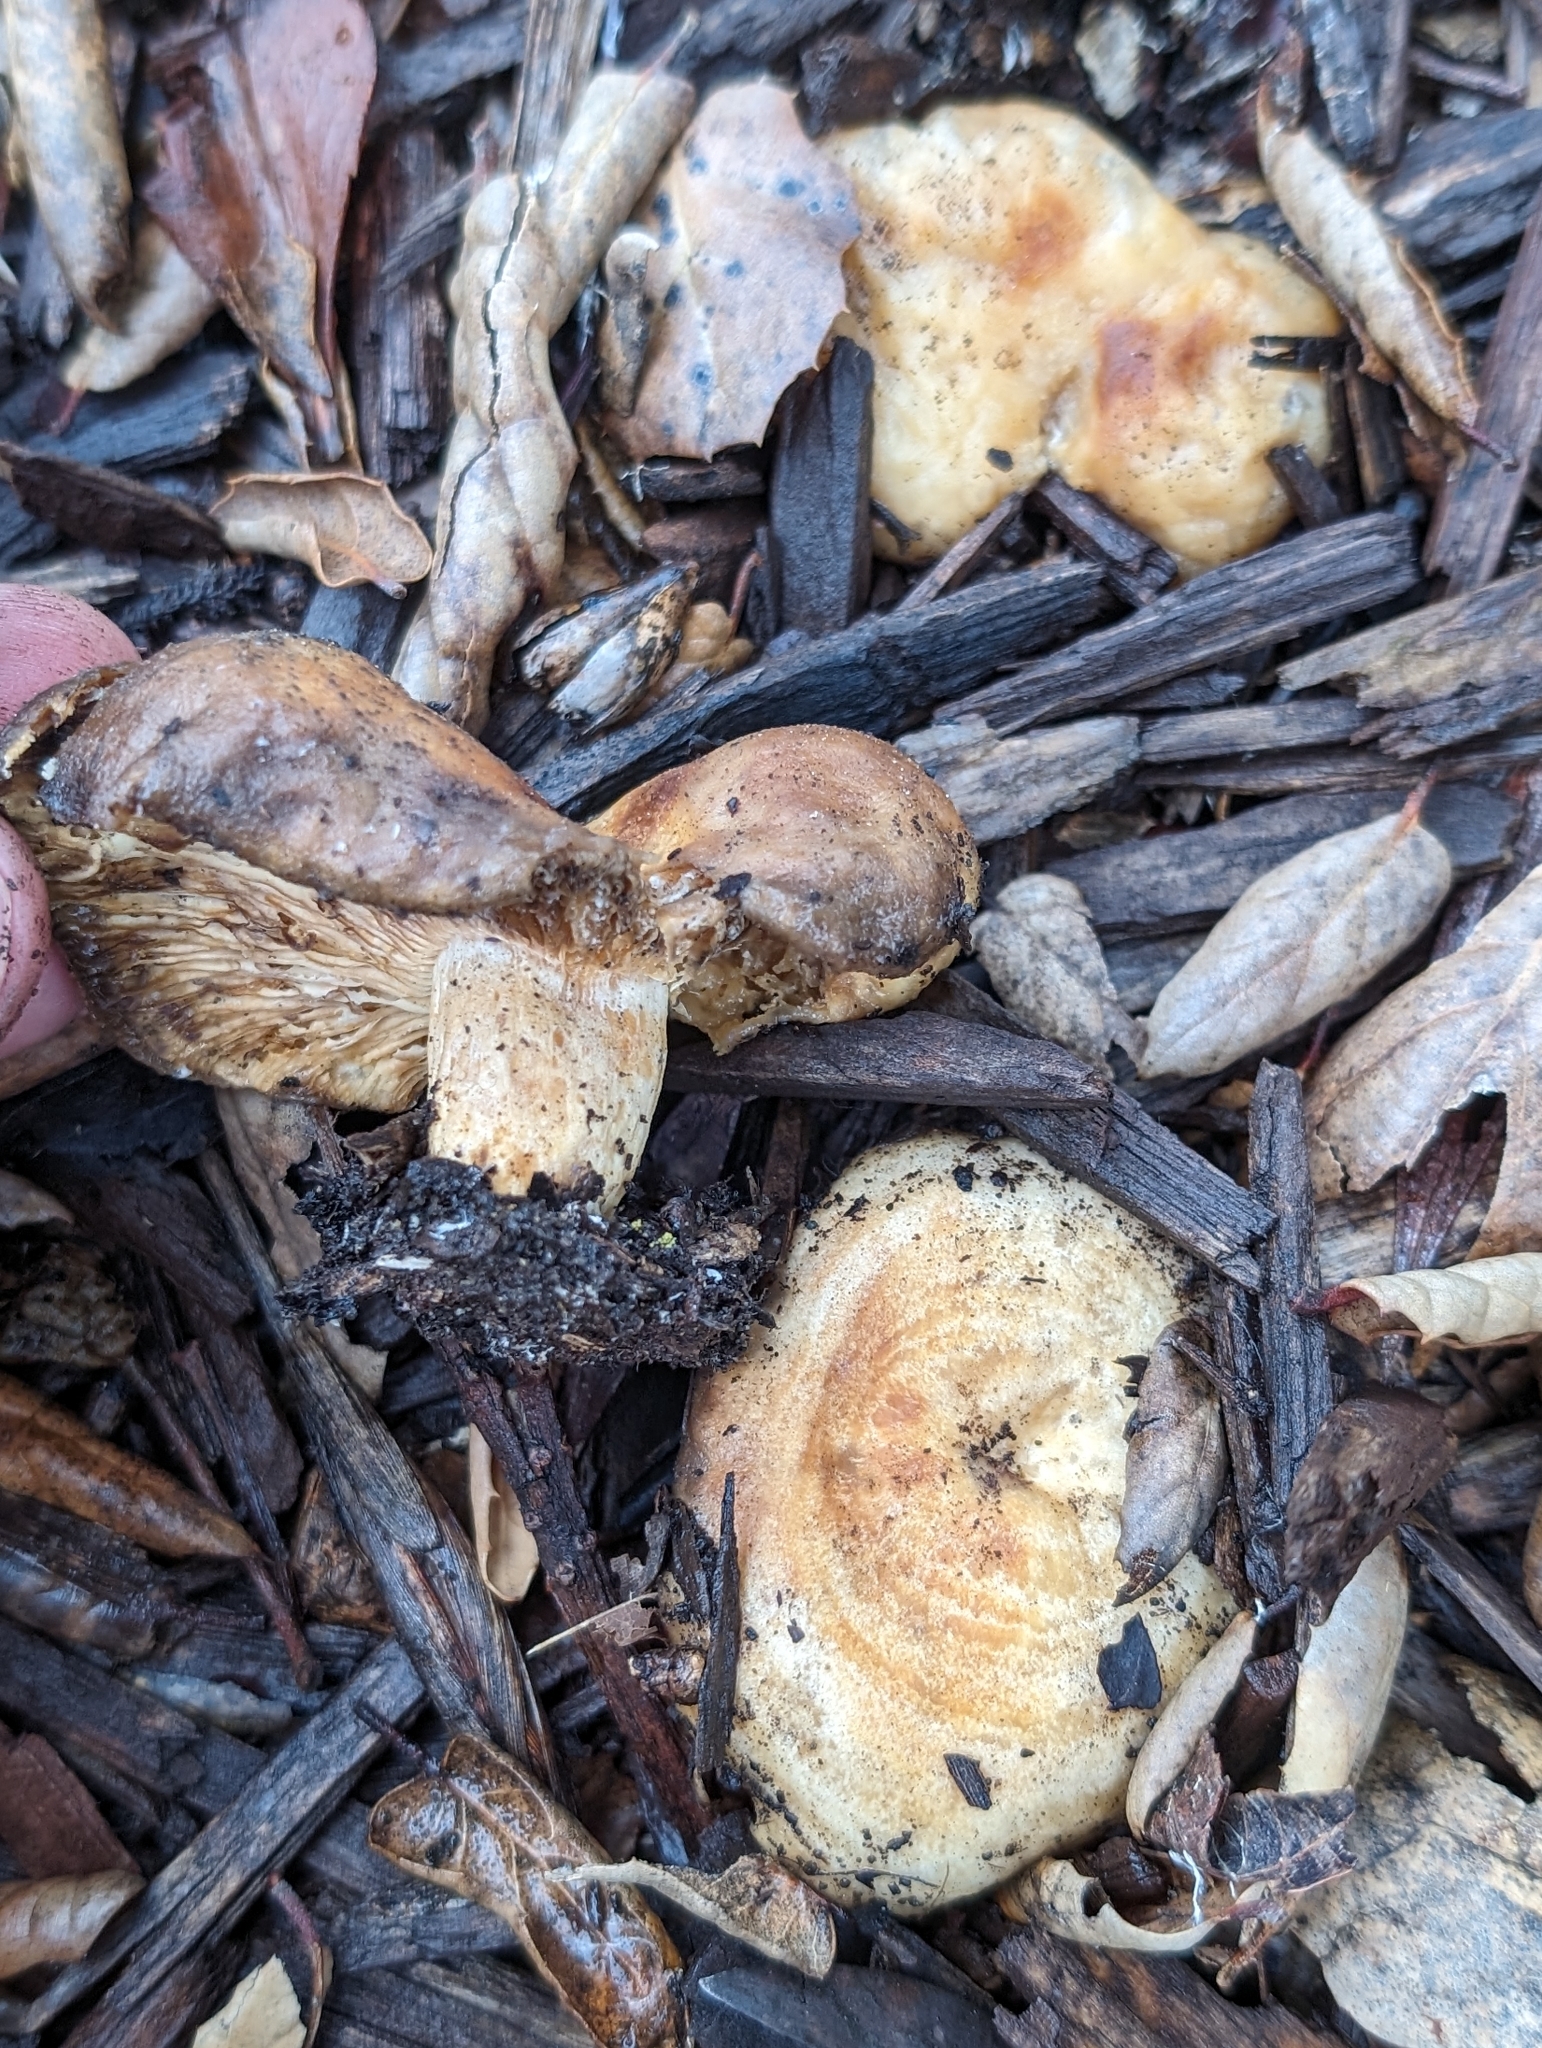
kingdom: Fungi
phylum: Basidiomycota
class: Agaricomycetes
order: Russulales
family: Russulaceae
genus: Lactarius
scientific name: Lactarius alnicola
